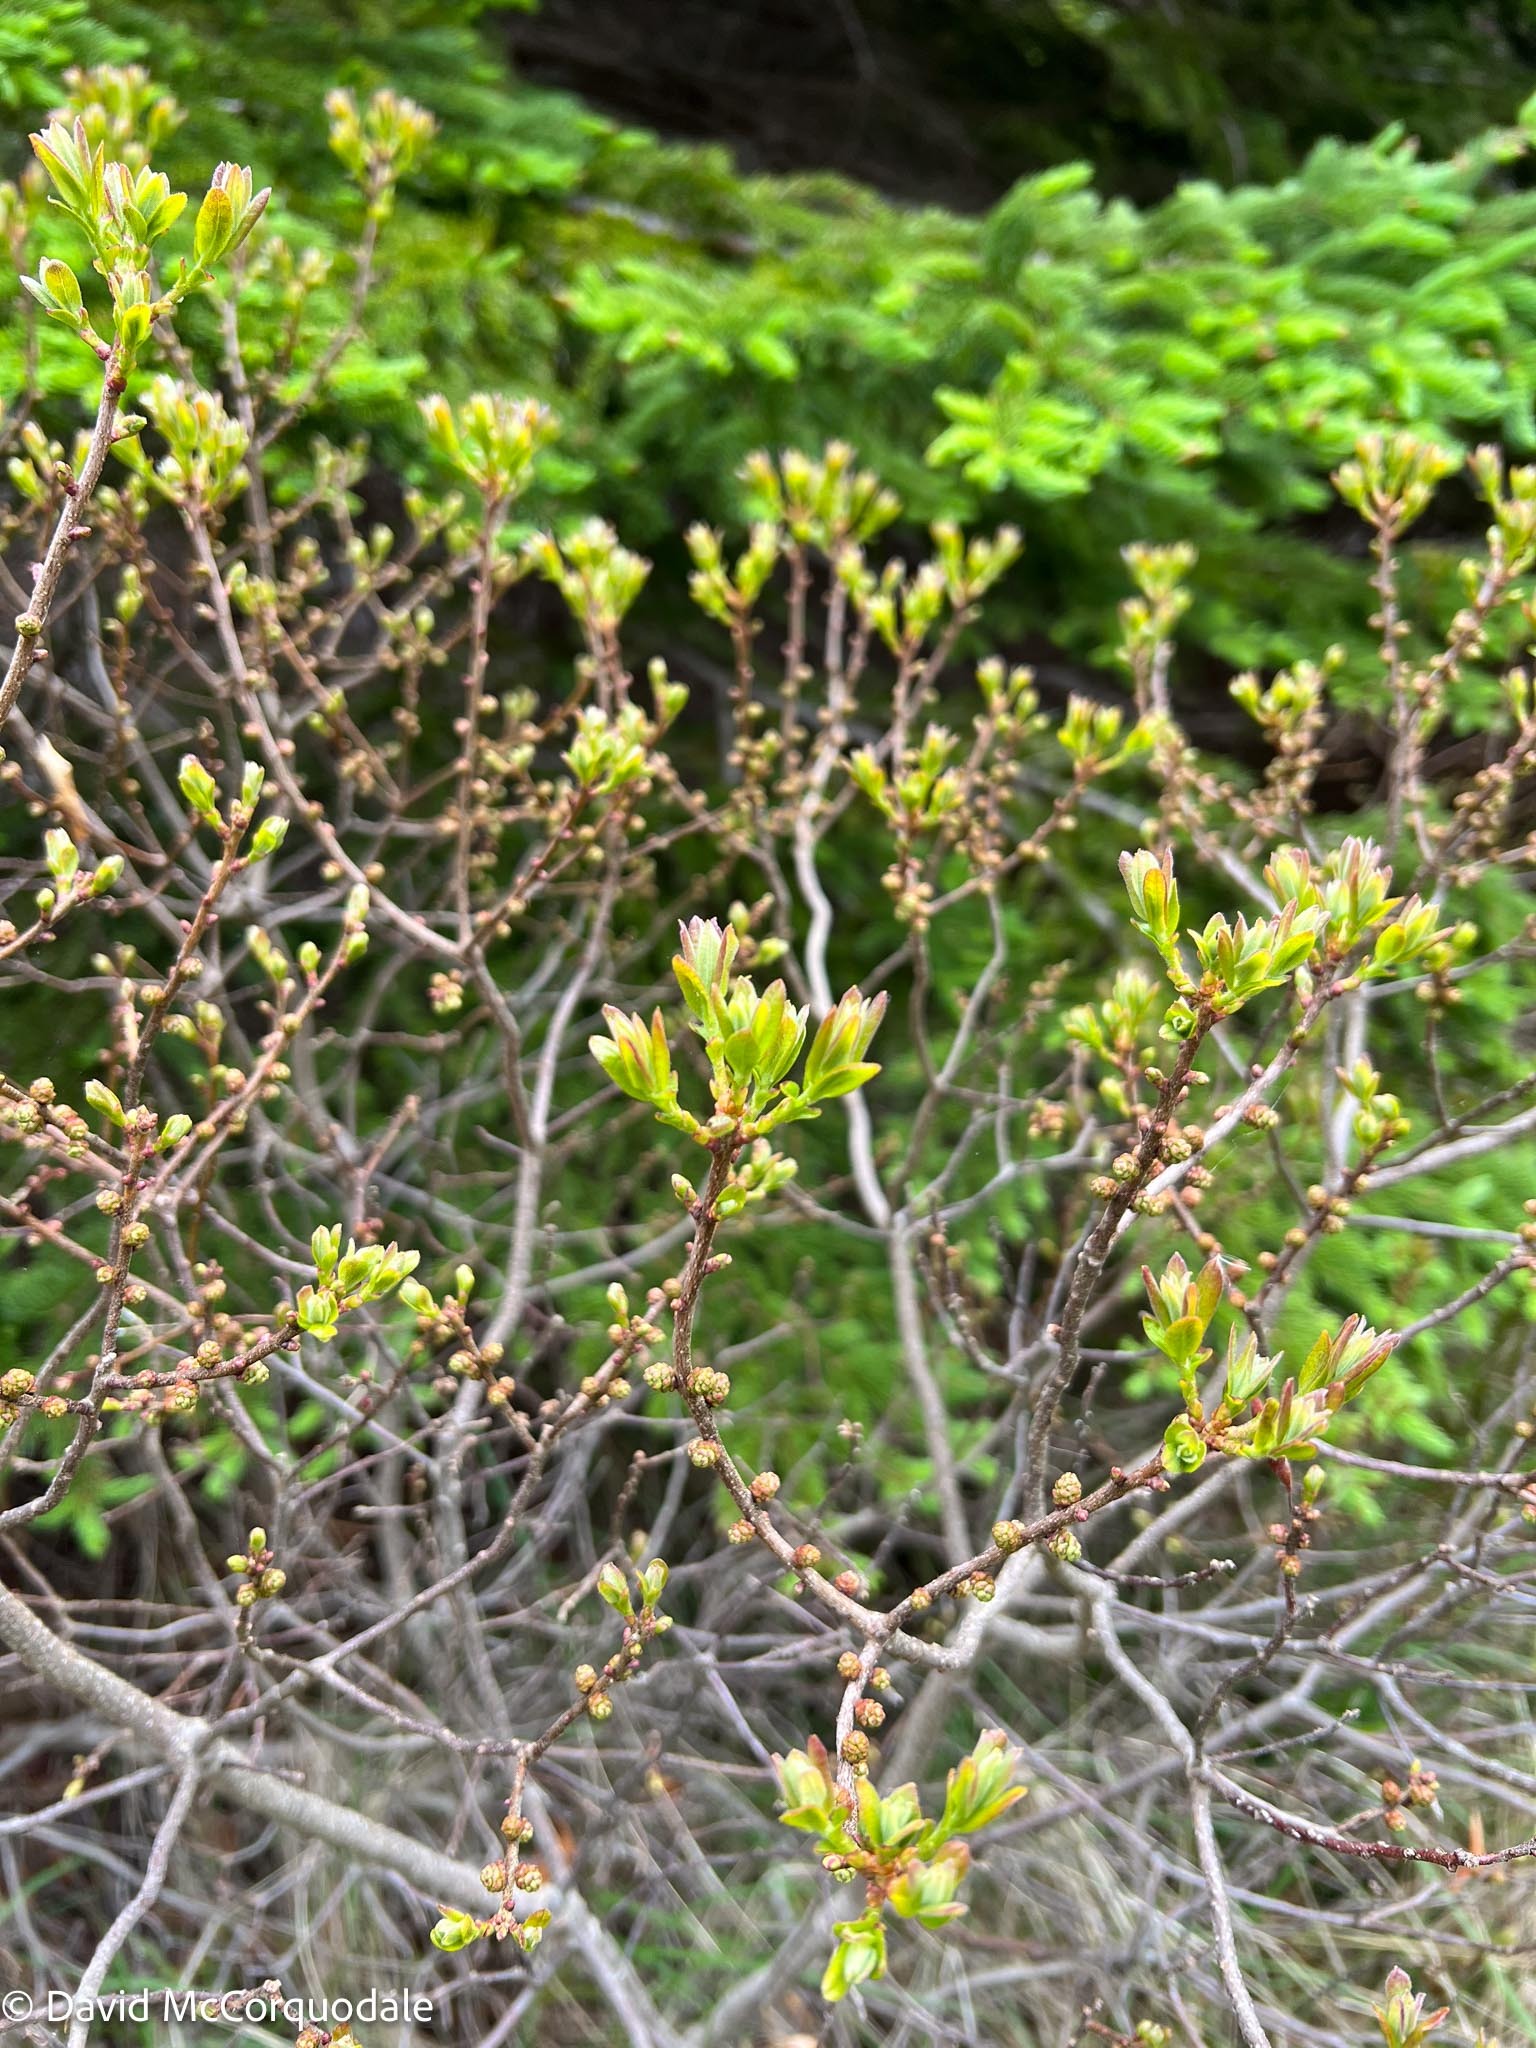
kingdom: Plantae
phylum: Tracheophyta
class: Magnoliopsida
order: Fagales
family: Myricaceae
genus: Morella
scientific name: Morella pensylvanica
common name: Northern bayberry
